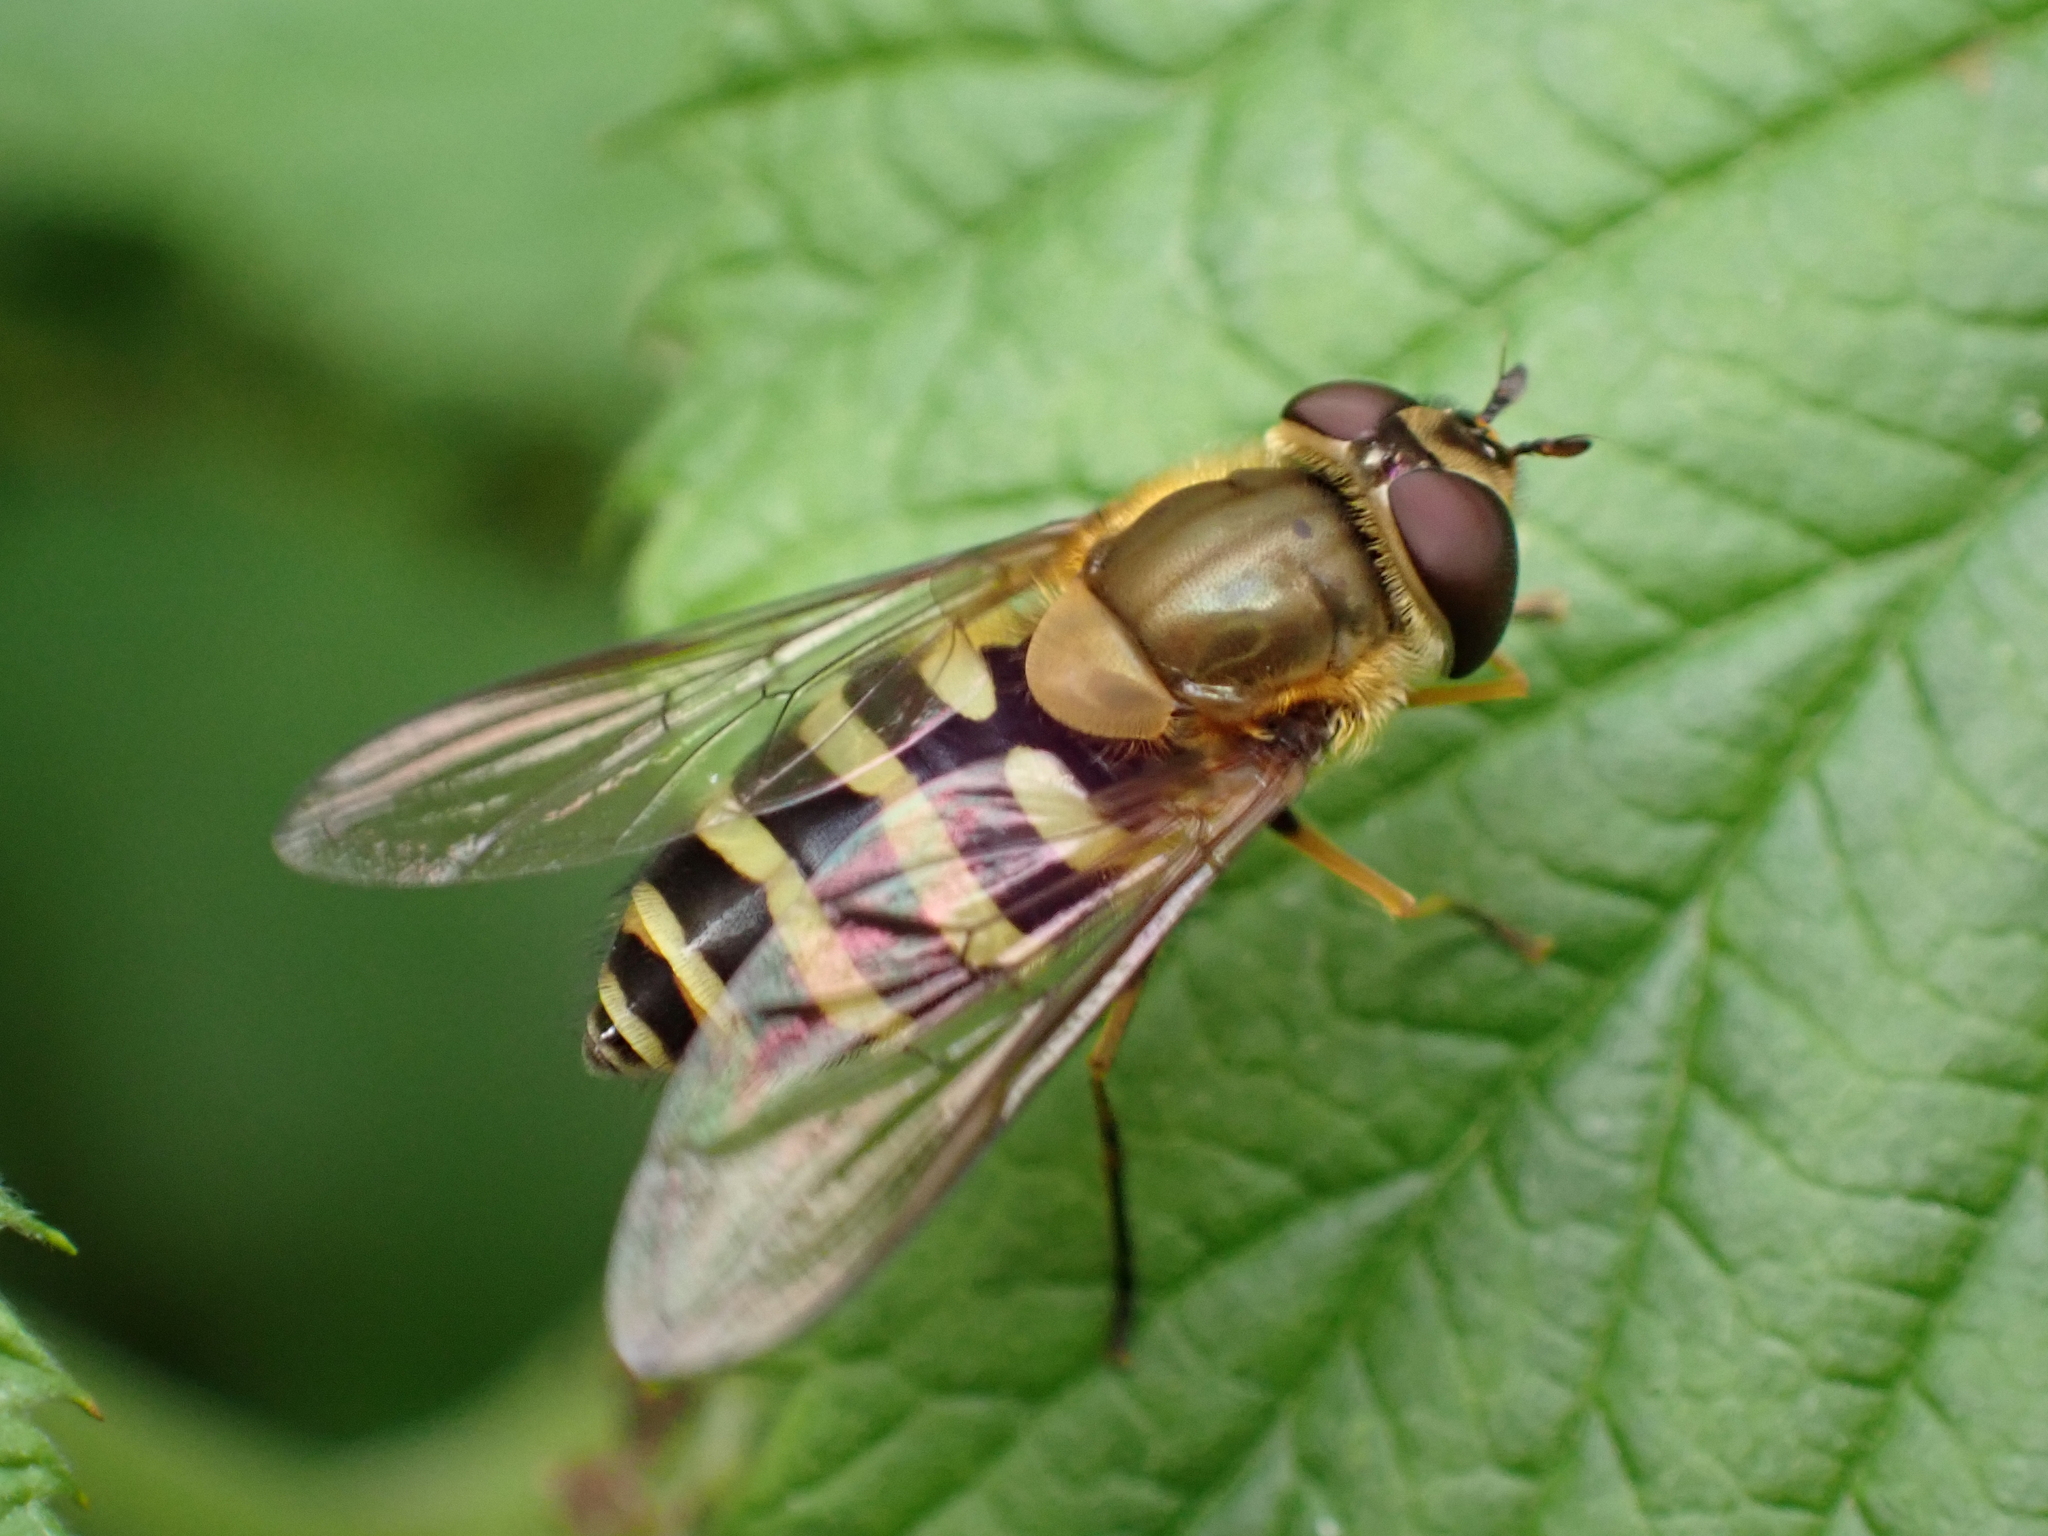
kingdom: Animalia
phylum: Arthropoda
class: Insecta
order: Diptera
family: Syrphidae
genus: Syrphus
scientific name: Syrphus
